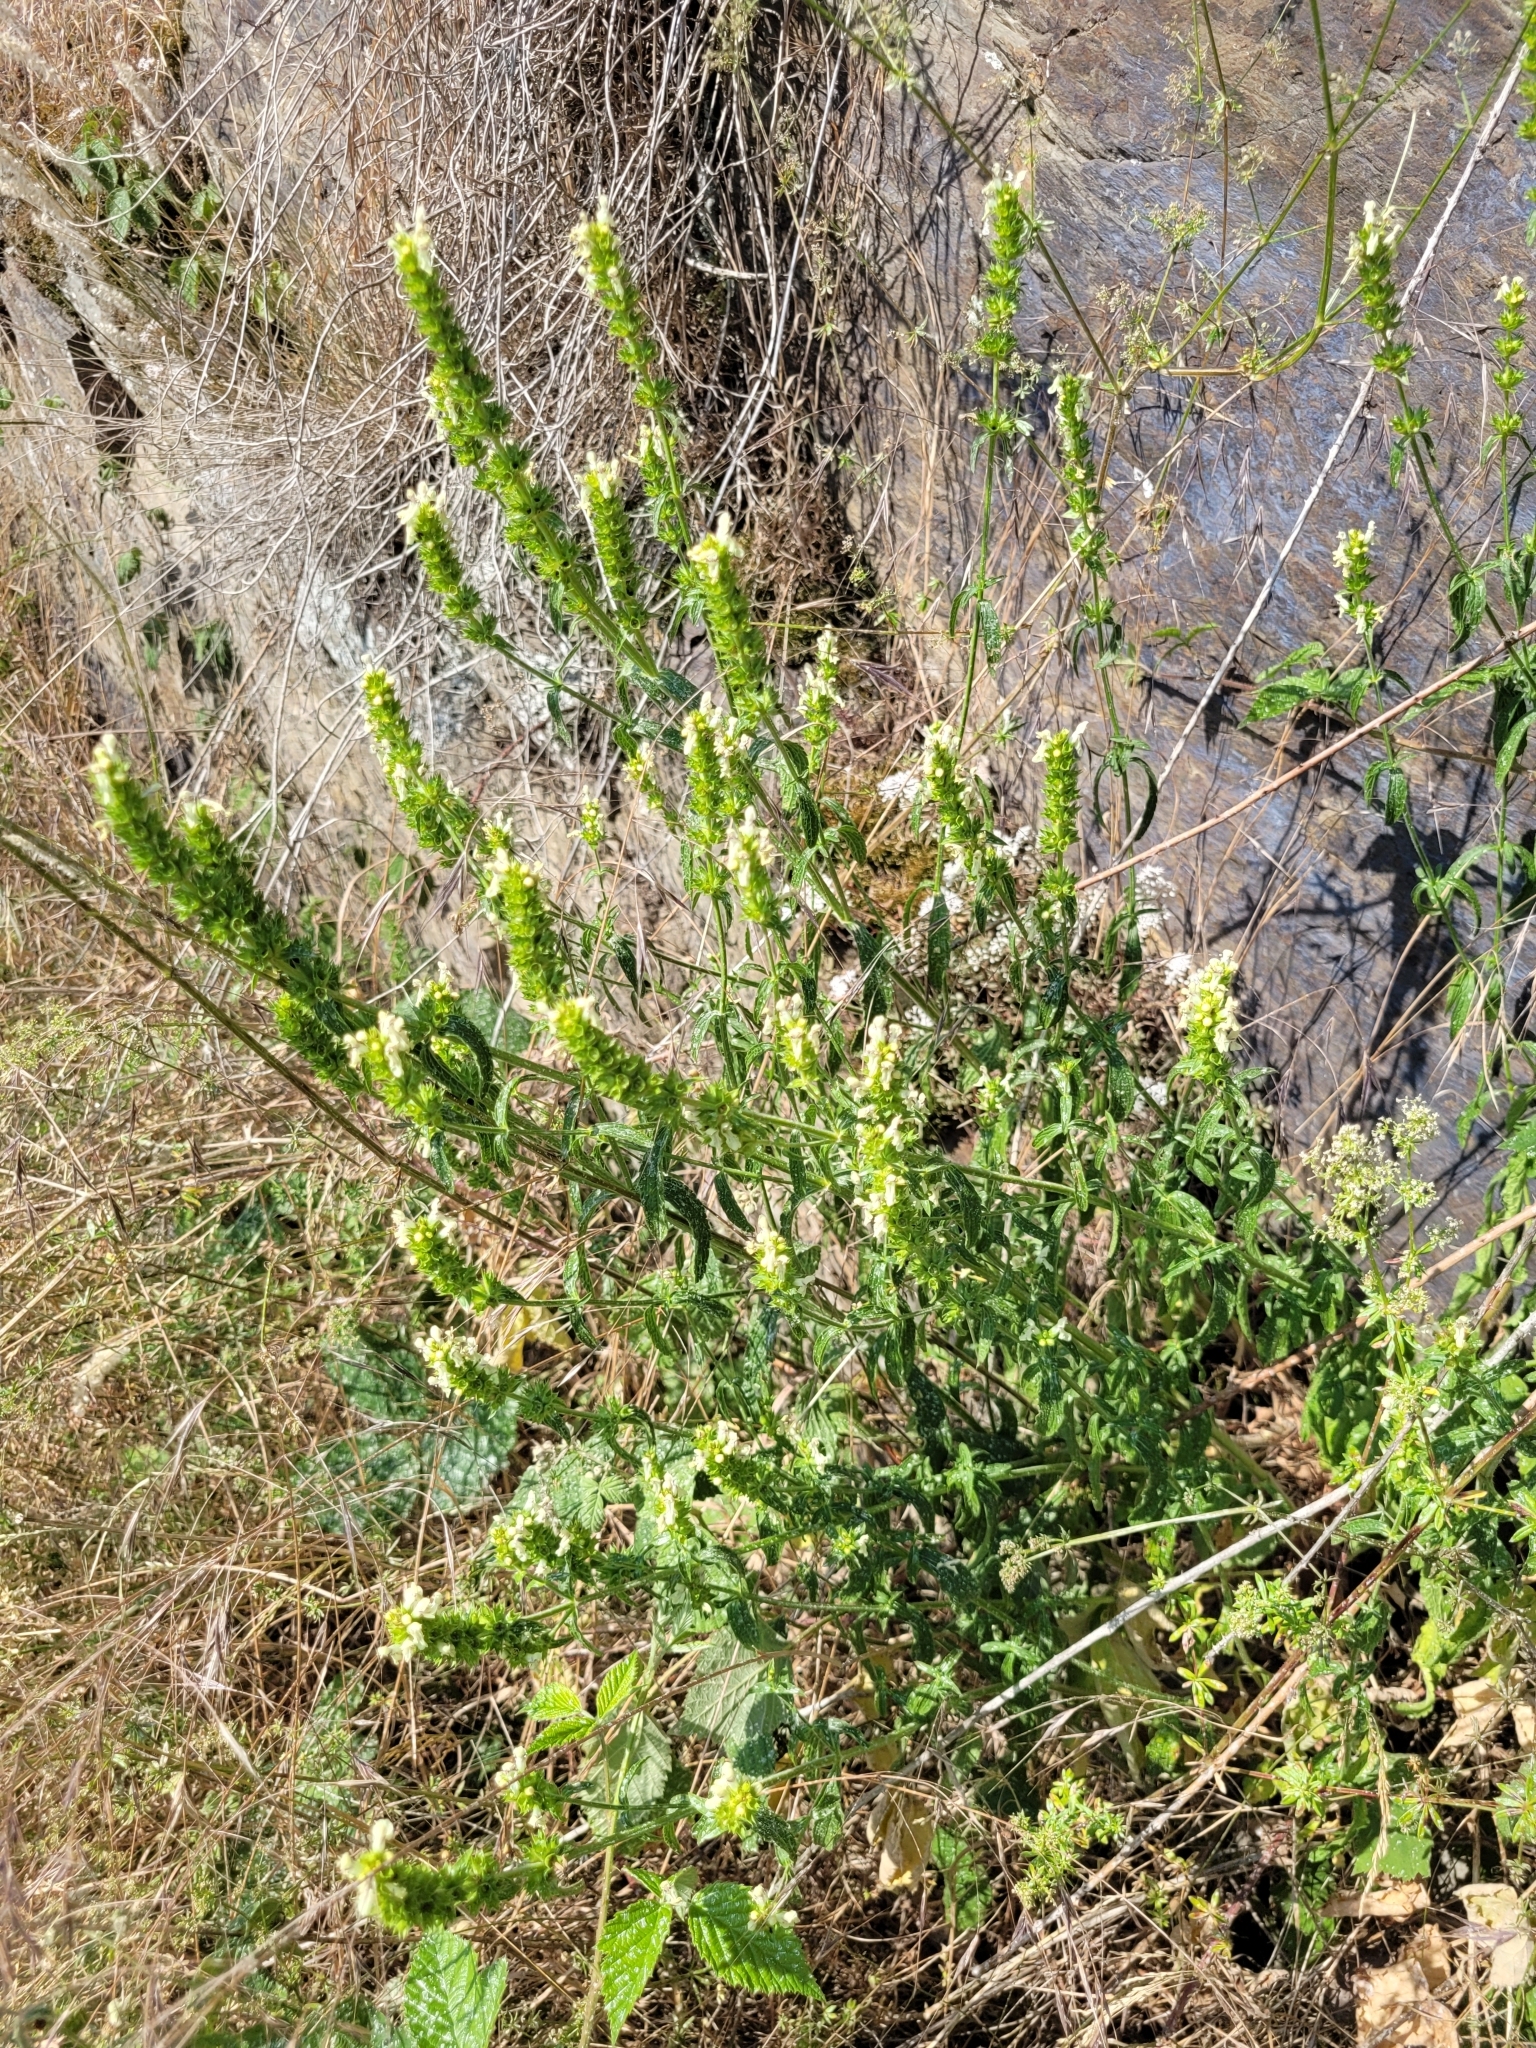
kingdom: Plantae
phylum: Tracheophyta
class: Magnoliopsida
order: Lamiales
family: Lamiaceae
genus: Stachys
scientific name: Stachys recta
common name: Perennial yellow-woundwort
